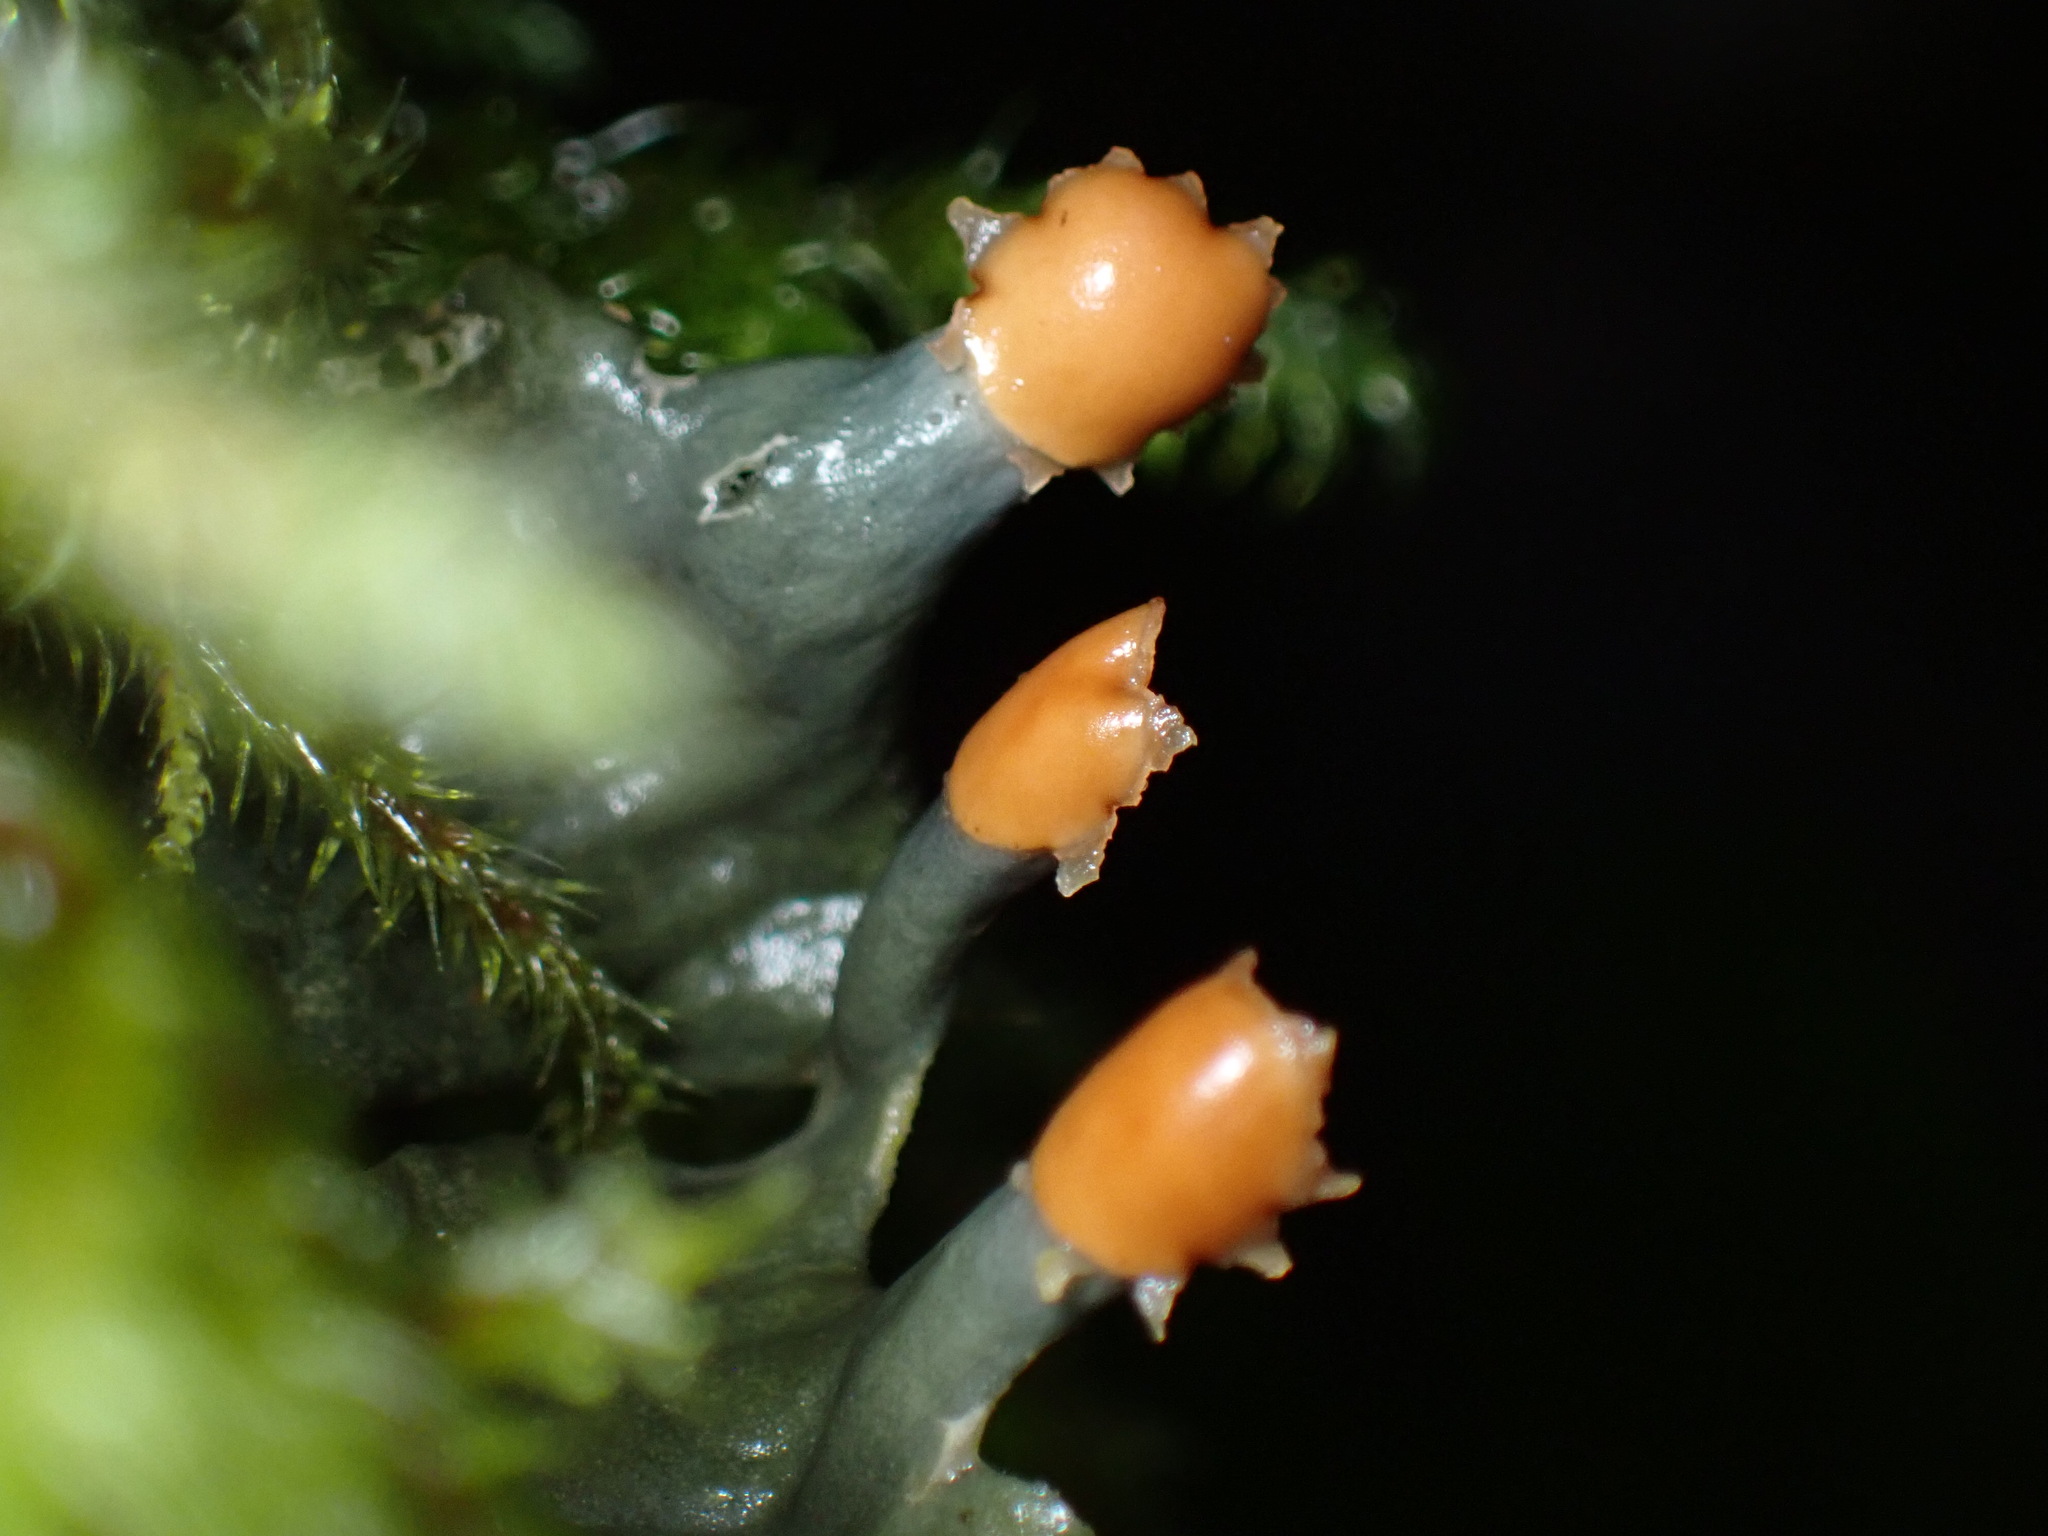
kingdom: Fungi
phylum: Ascomycota
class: Lecanoromycetes
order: Peltigerales
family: Peltigeraceae
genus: Peltigera
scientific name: Peltigera membranacea
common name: Membranous pelt lichen
